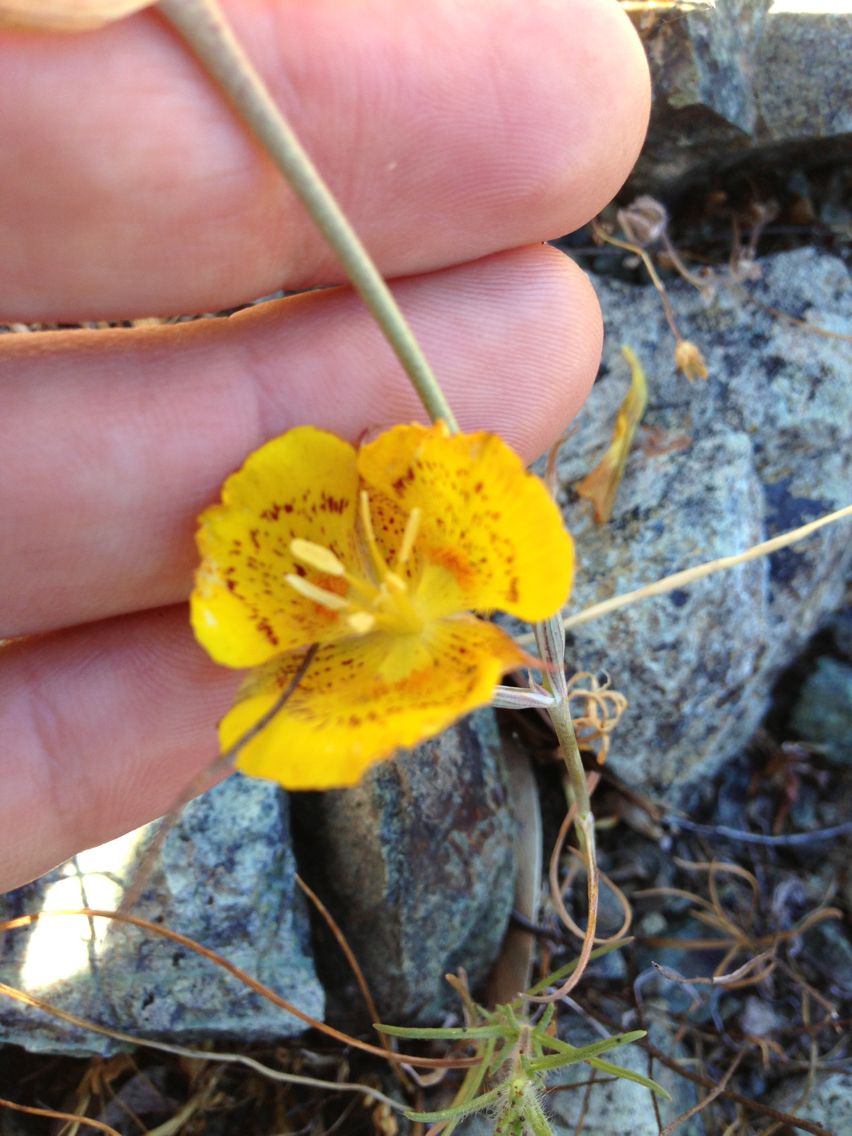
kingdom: Plantae
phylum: Tracheophyta
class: Liliopsida
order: Liliales
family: Liliaceae
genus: Calochortus
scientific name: Calochortus luteus
